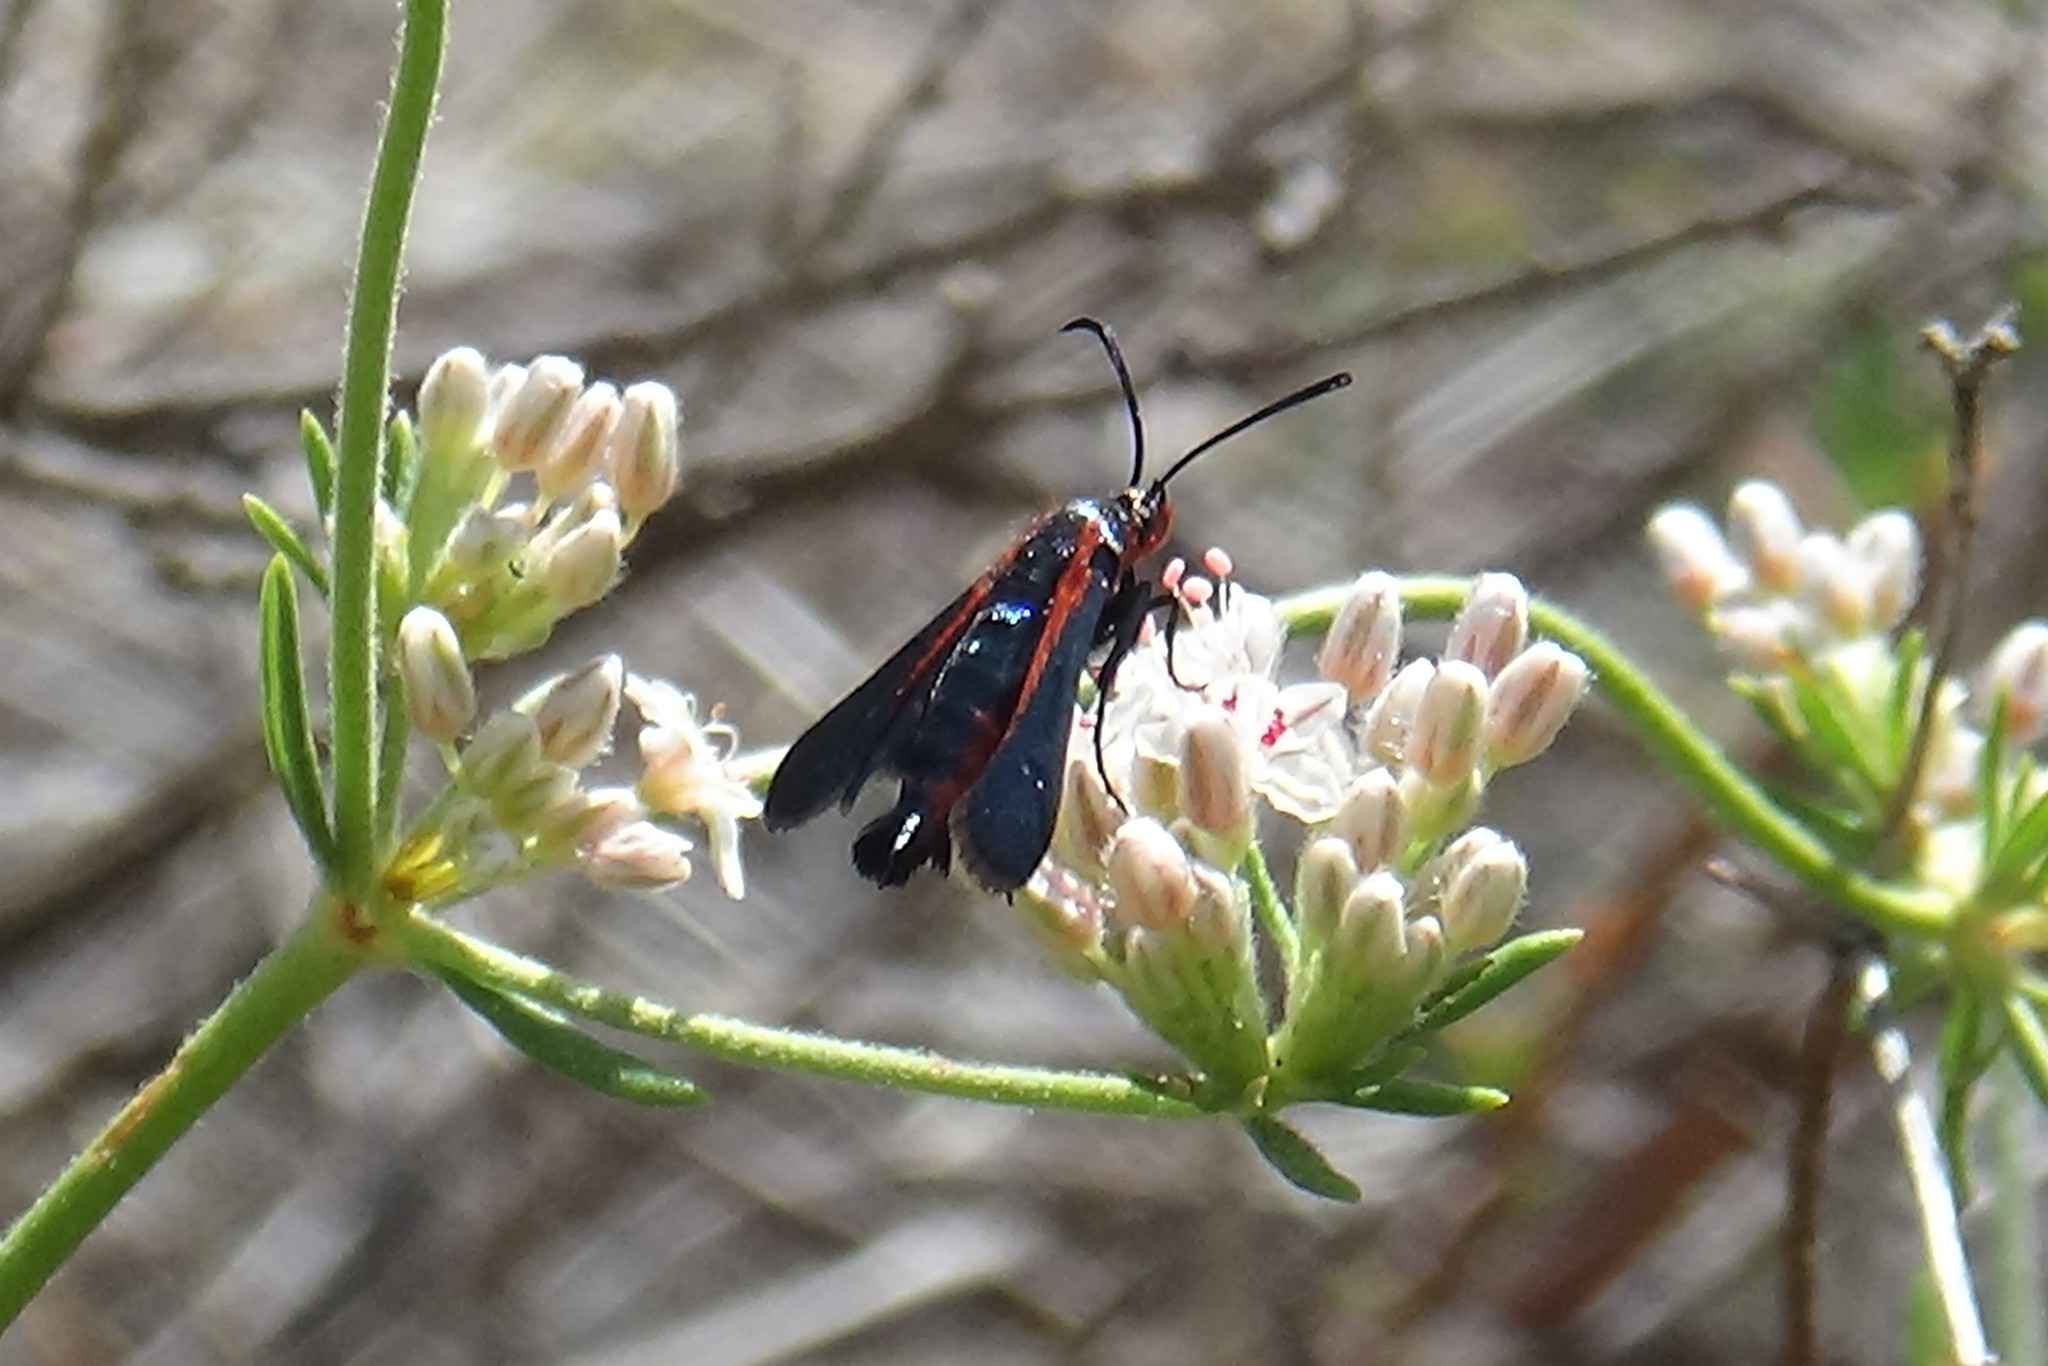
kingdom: Animalia
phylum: Arthropoda
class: Insecta
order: Lepidoptera
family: Sesiidae
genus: Synanthedon
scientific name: Synanthedon polygoni
